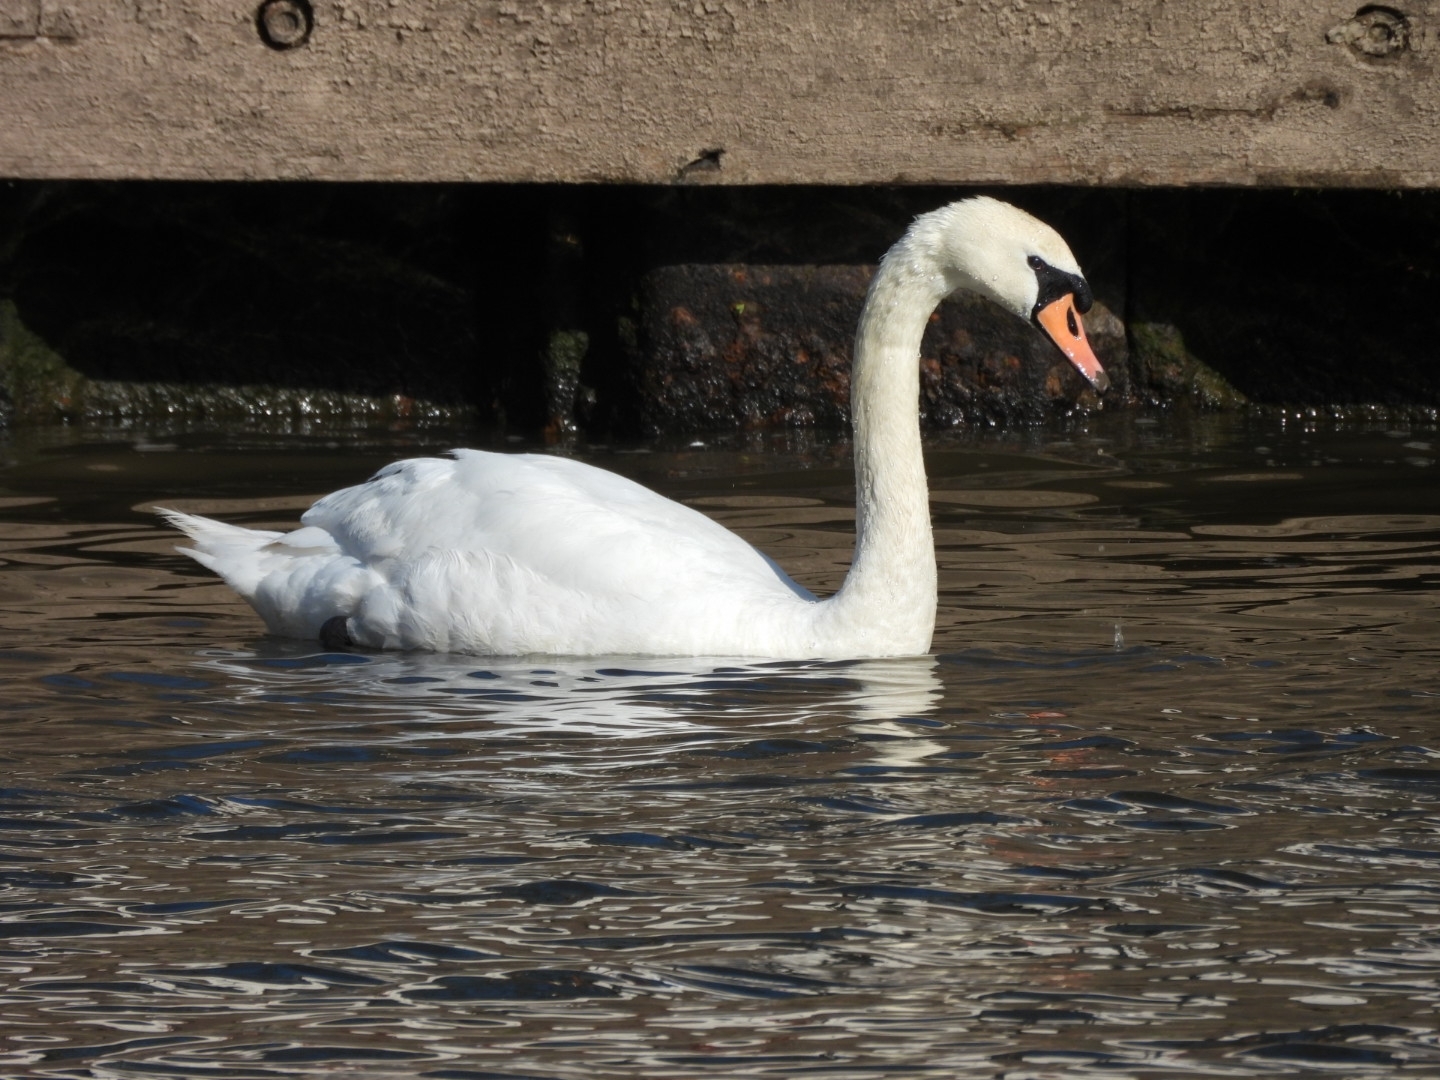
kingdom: Animalia
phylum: Chordata
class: Aves
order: Anseriformes
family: Anatidae
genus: Cygnus
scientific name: Cygnus olor
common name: Mute swan
